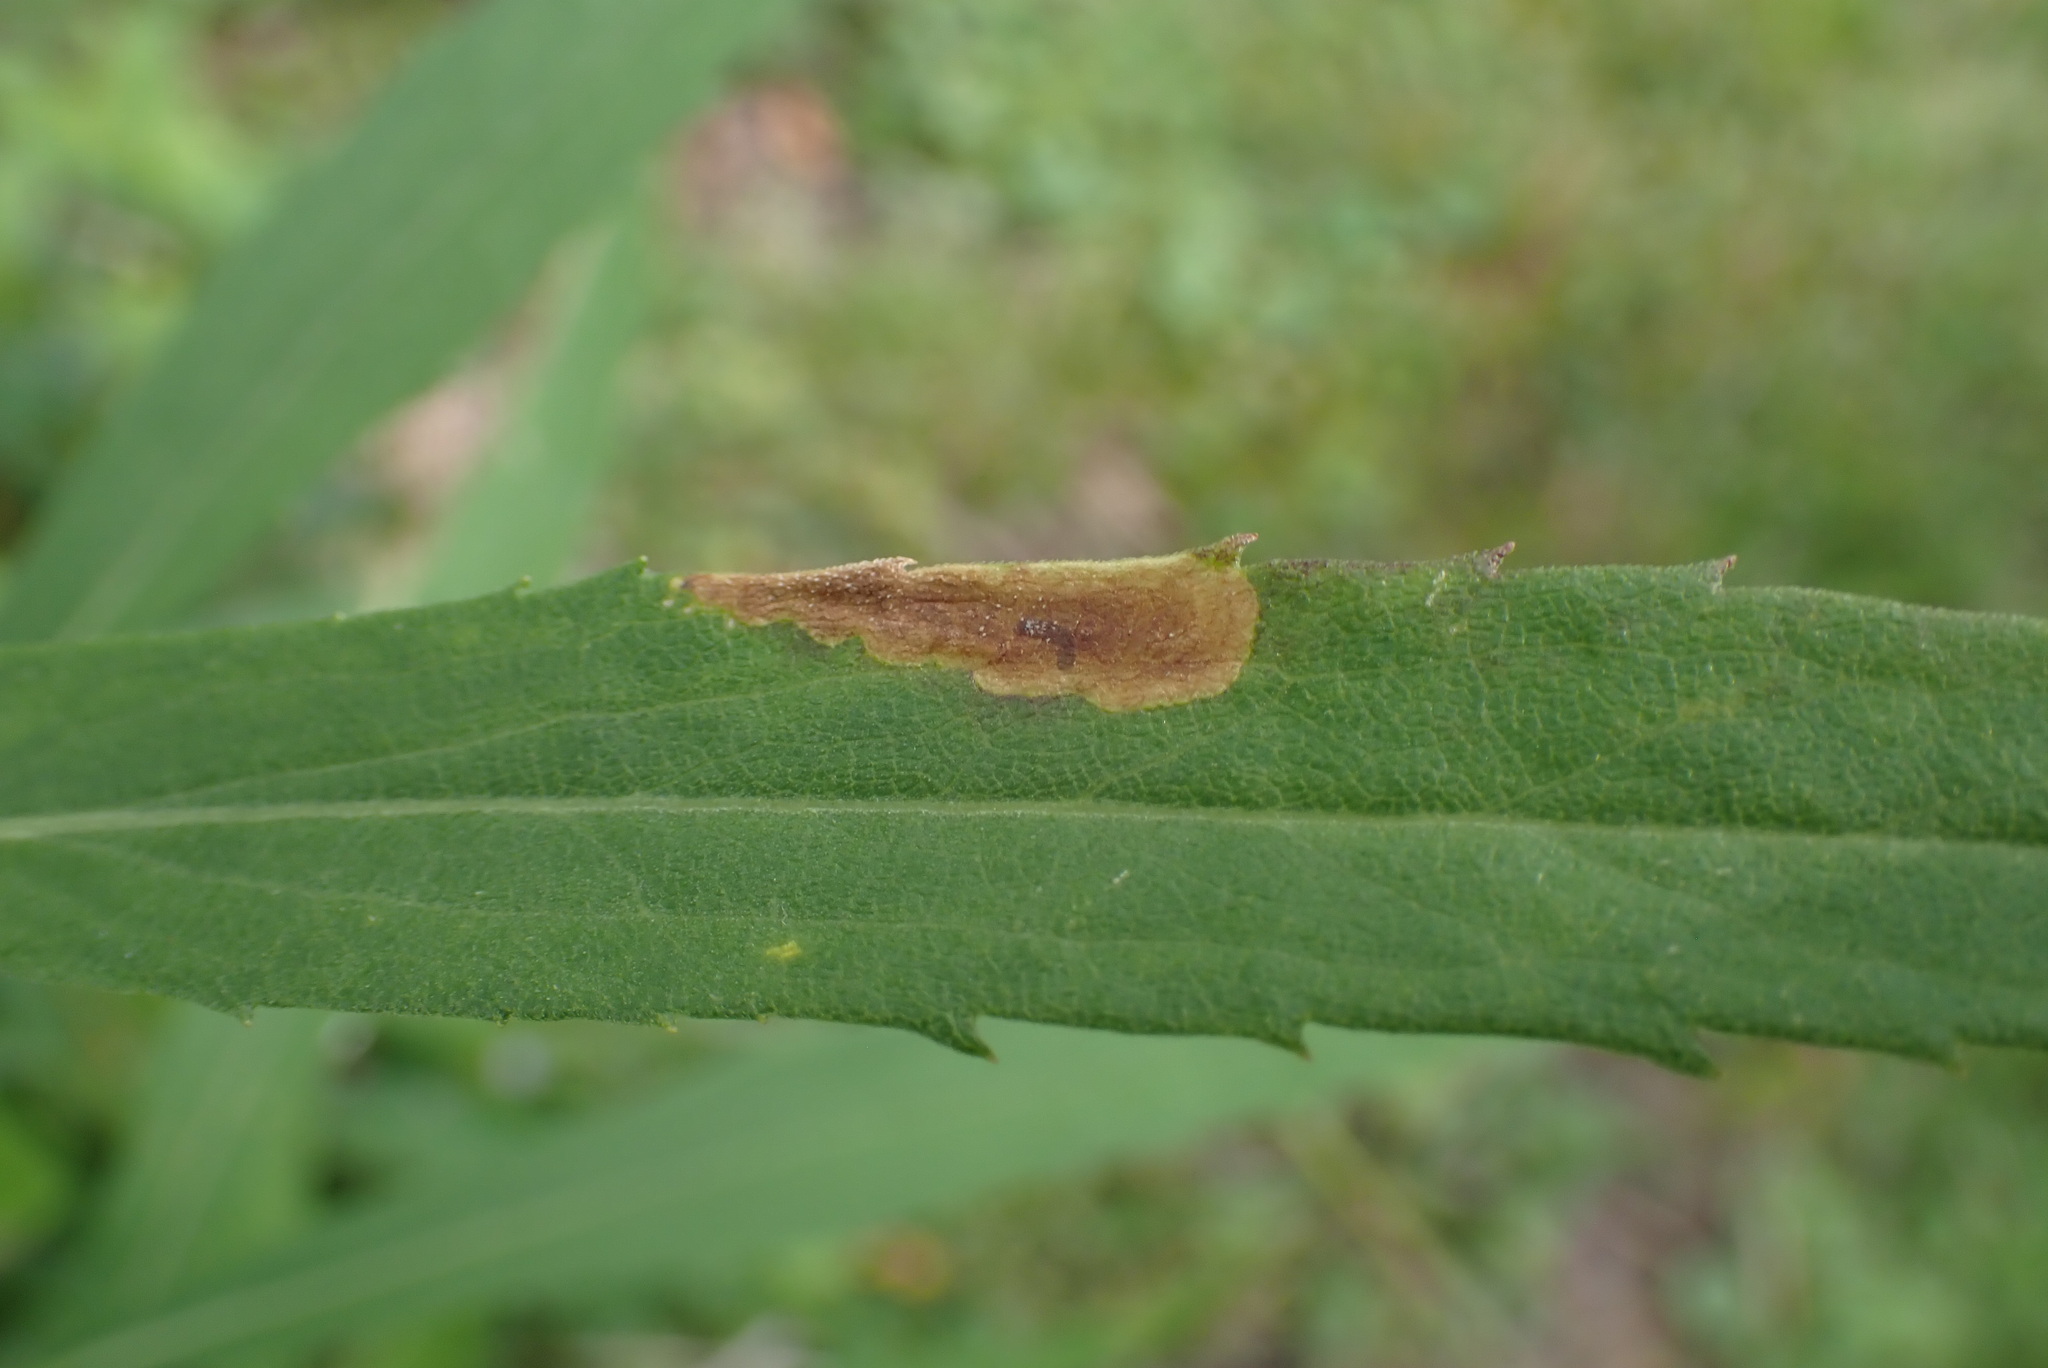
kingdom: Animalia
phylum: Arthropoda
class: Insecta
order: Diptera
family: Agromyzidae
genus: Nemorimyza
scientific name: Nemorimyza posticata
